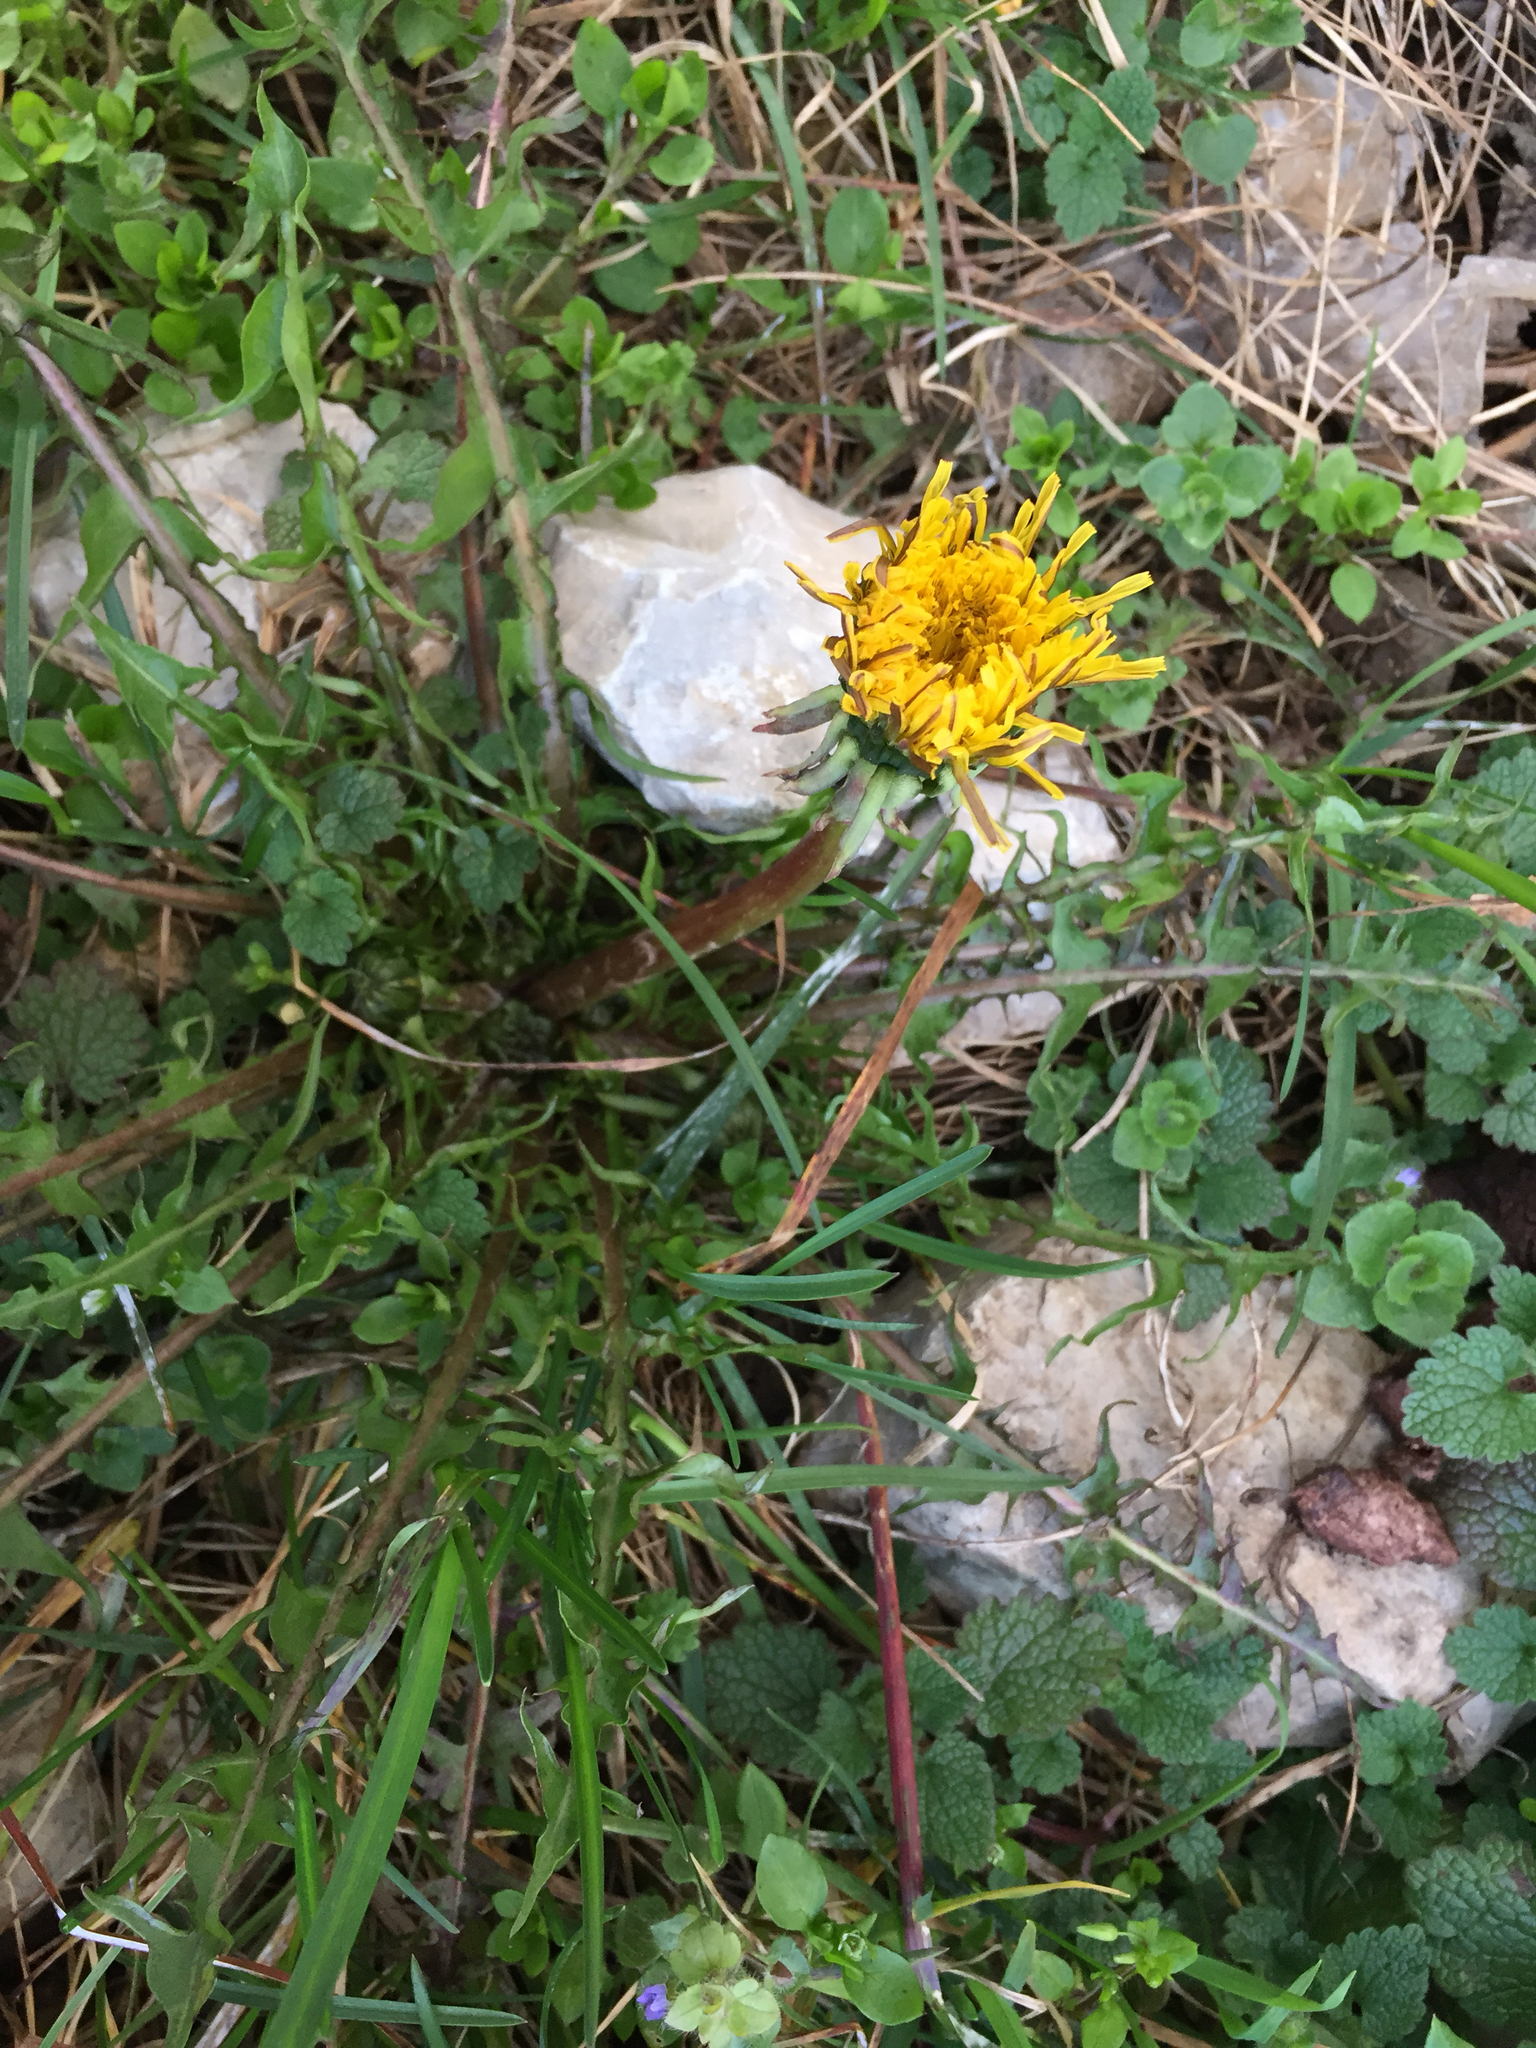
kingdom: Plantae
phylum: Tracheophyta
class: Magnoliopsida
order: Asterales
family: Asteraceae
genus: Taraxacum
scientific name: Taraxacum officinale
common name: Common dandelion
